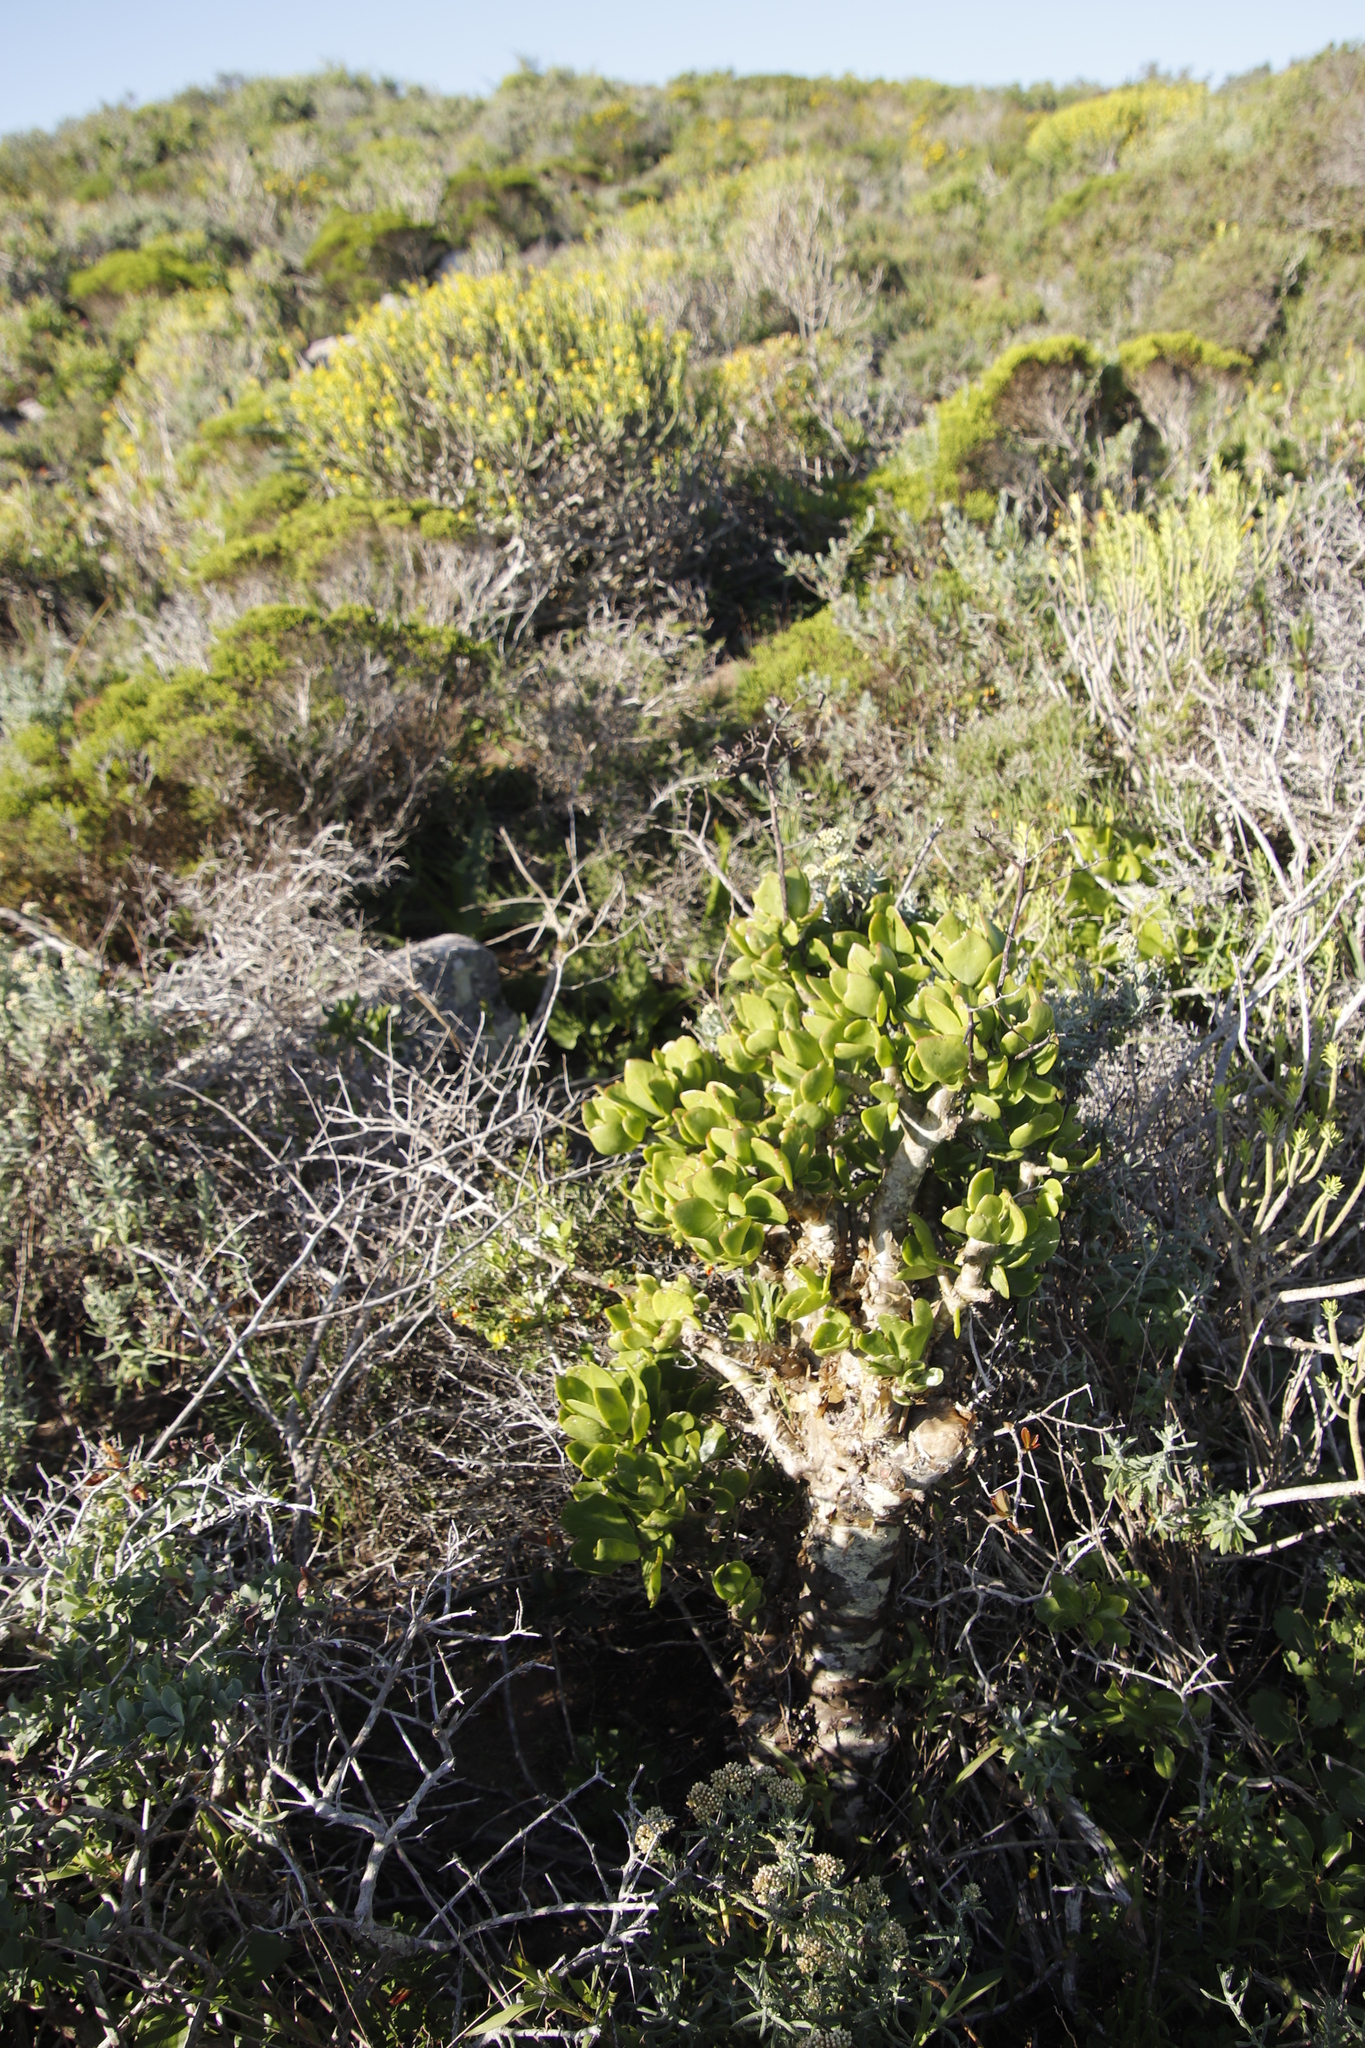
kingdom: Plantae
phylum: Tracheophyta
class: Magnoliopsida
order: Saxifragales
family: Crassulaceae
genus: Tylecodon
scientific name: Tylecodon paniculatus
